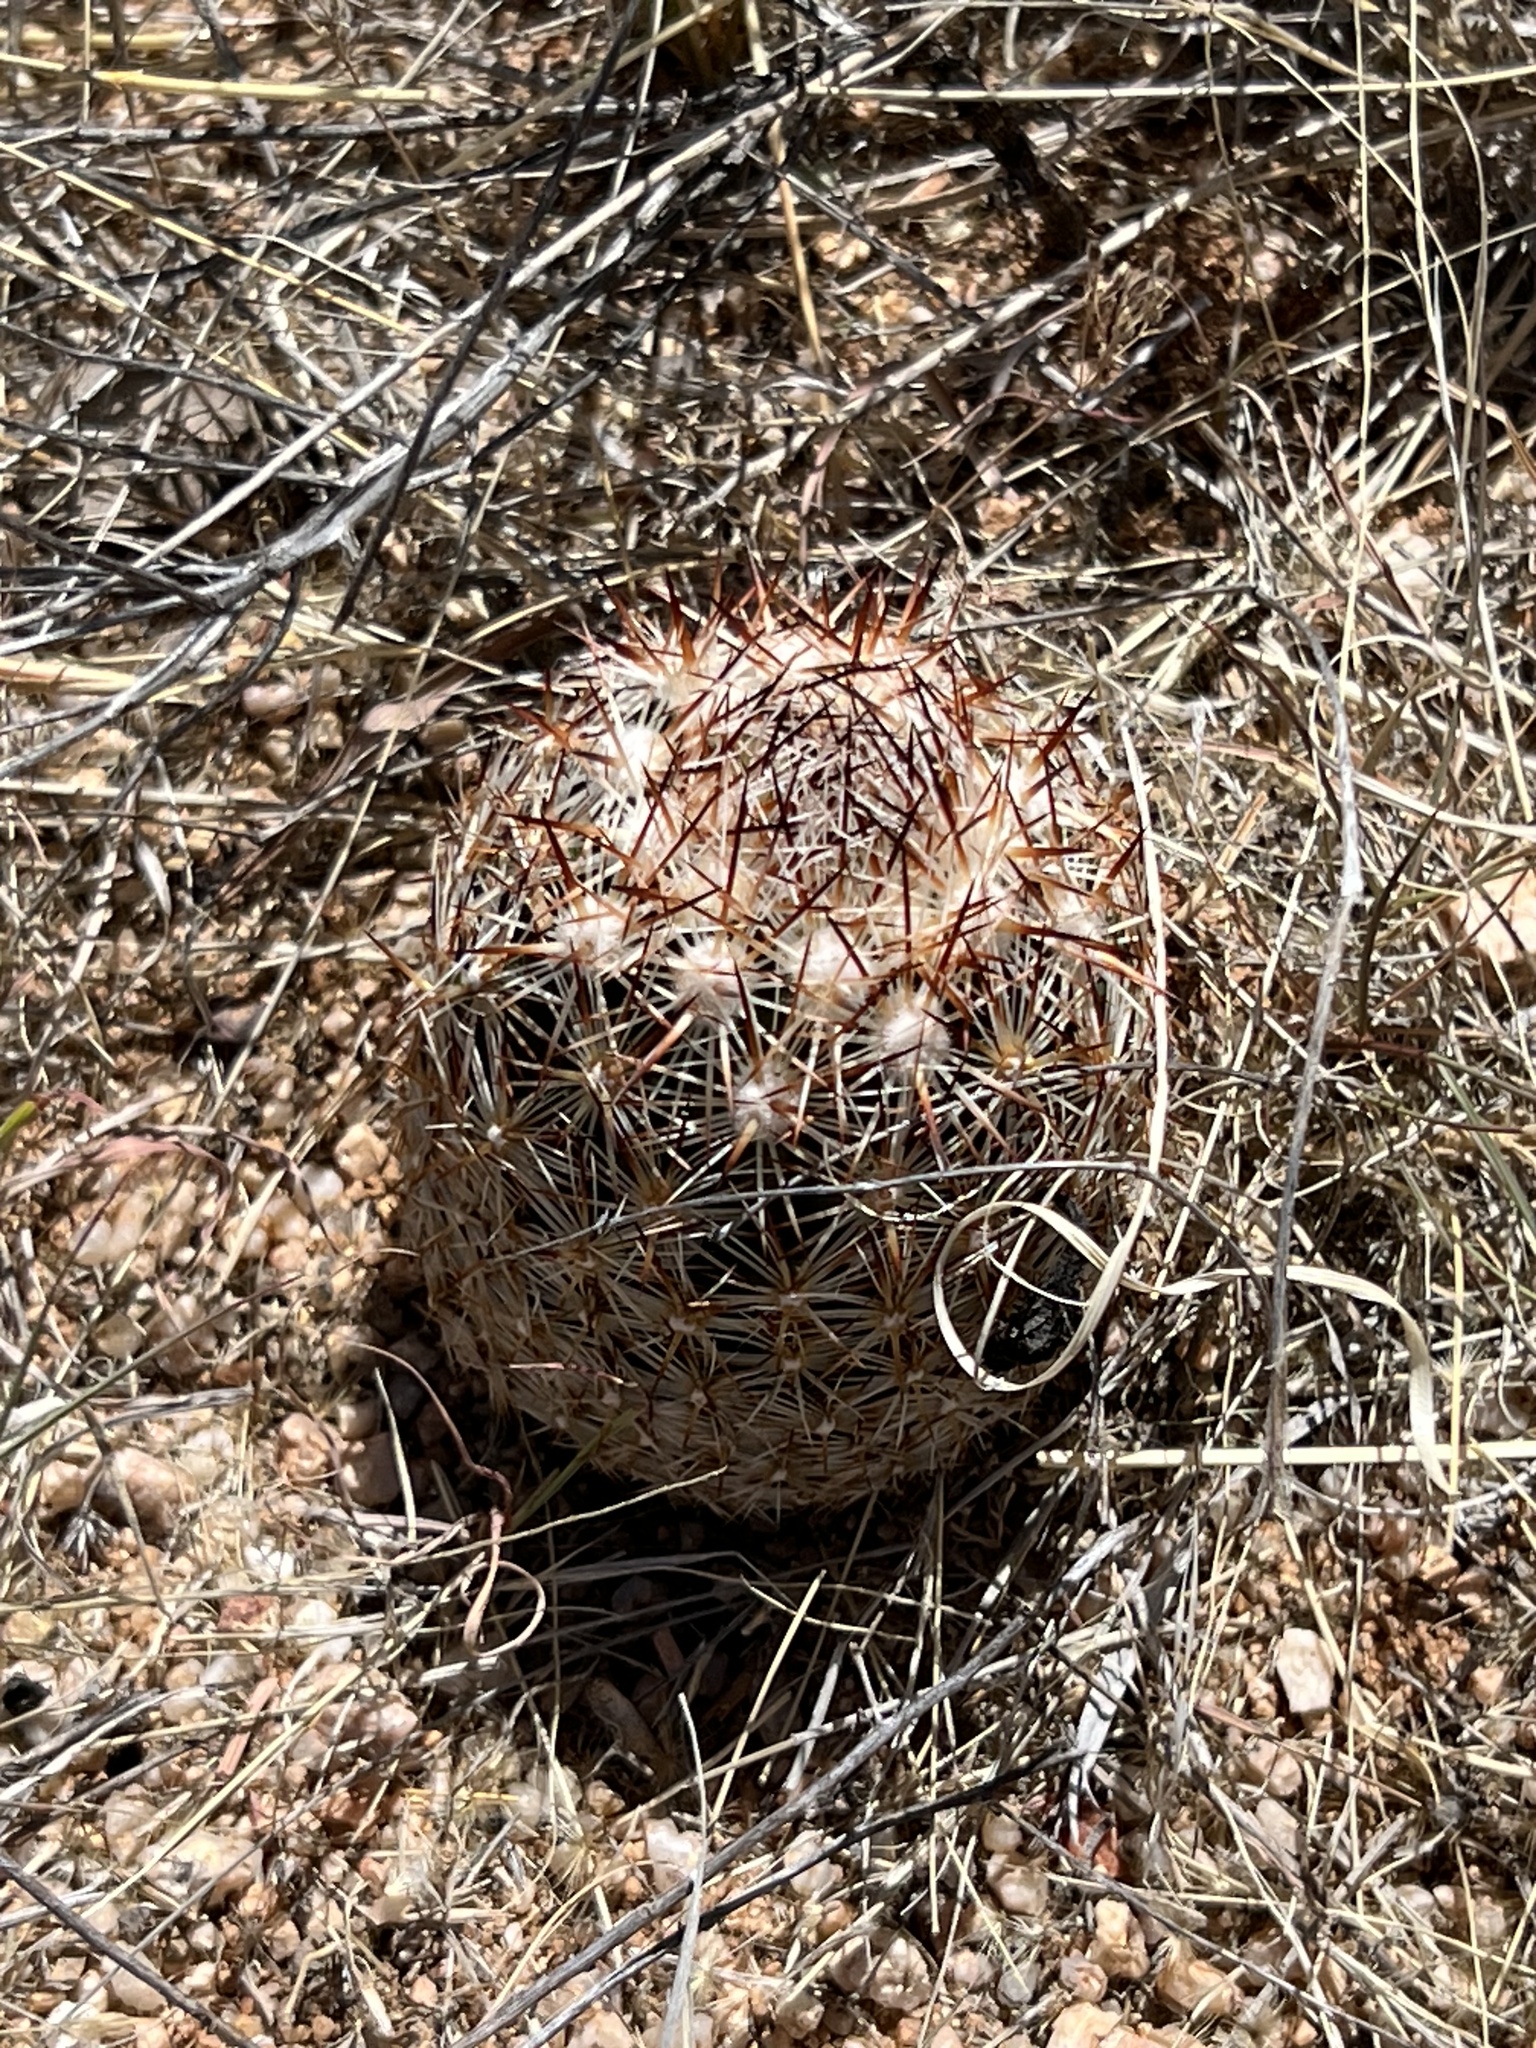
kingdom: Plantae
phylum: Tracheophyta
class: Magnoliopsida
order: Caryophyllales
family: Cactaceae
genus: Pelecyphora
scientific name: Pelecyphora vivipara
